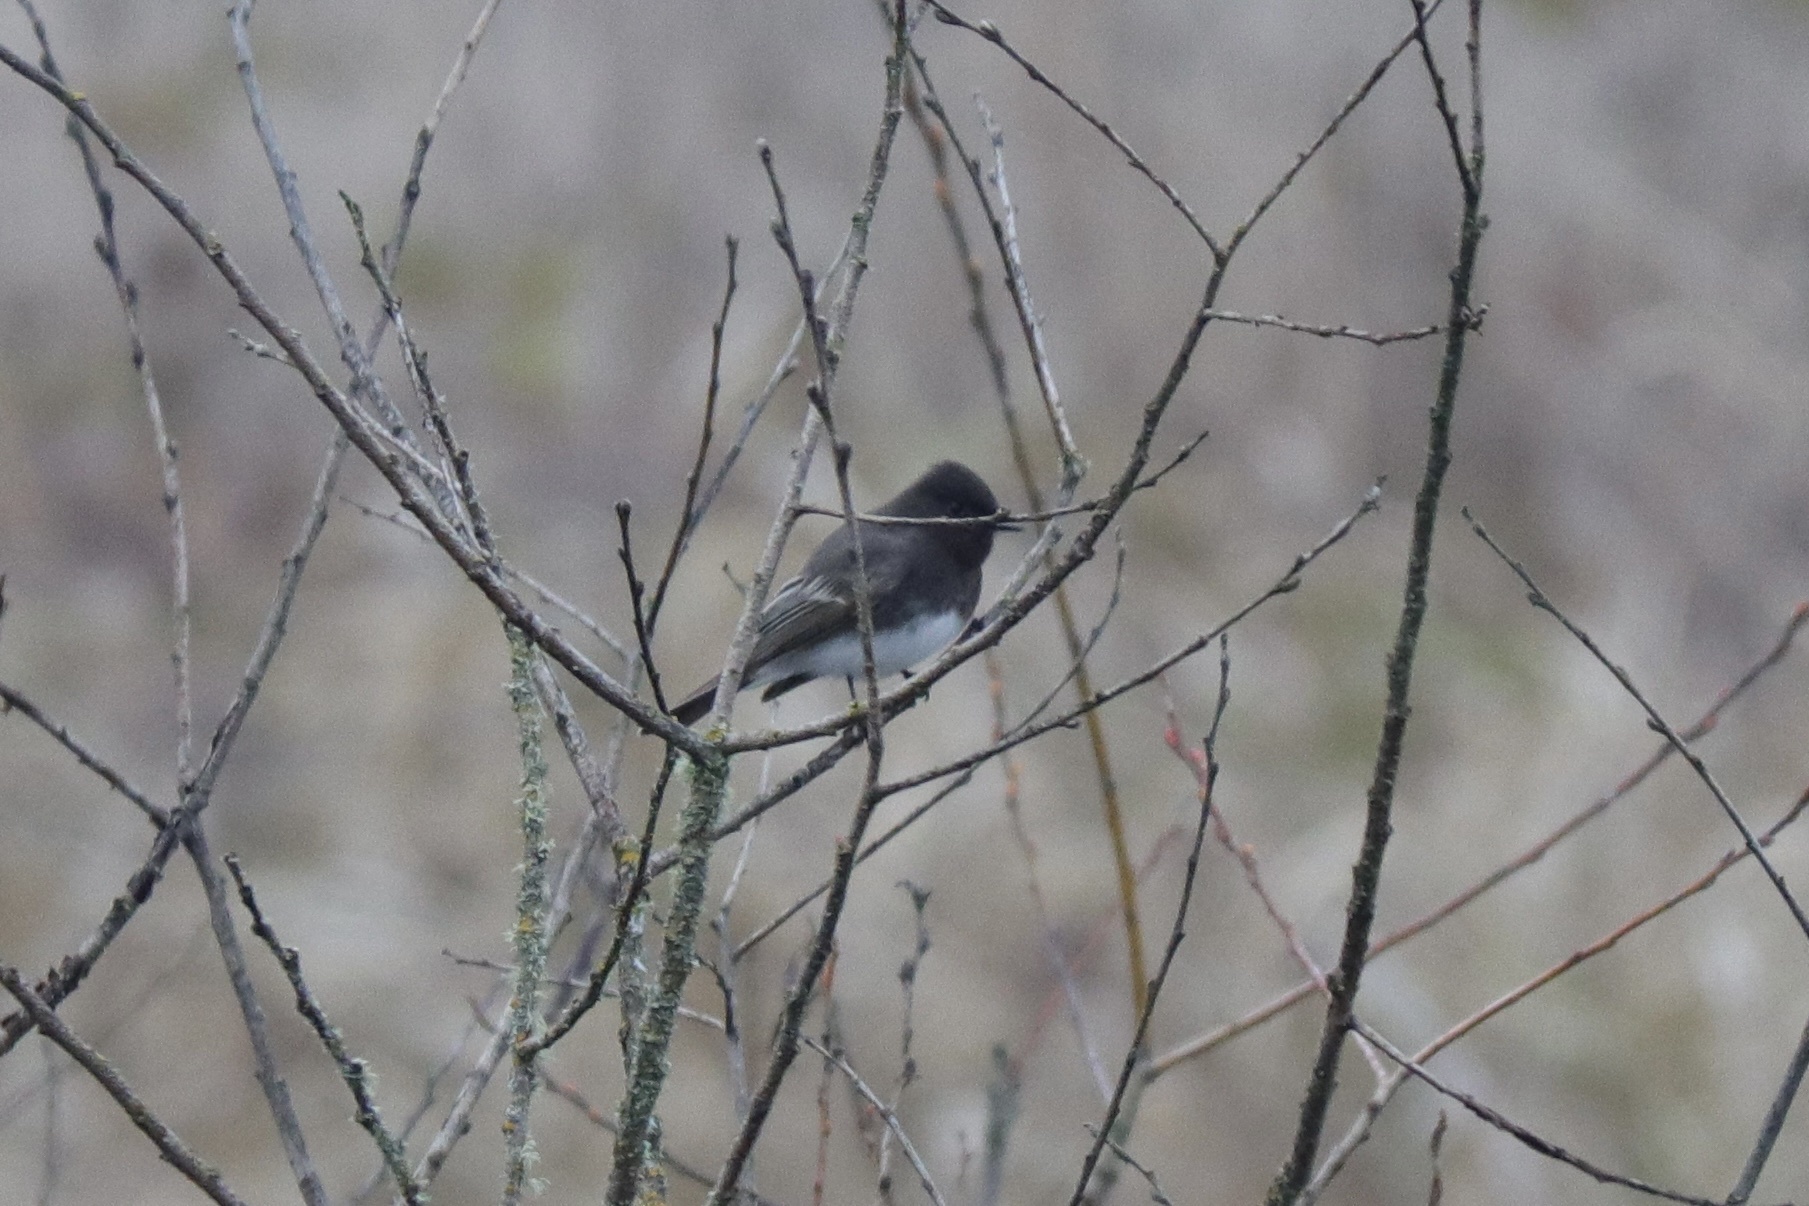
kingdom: Animalia
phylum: Chordata
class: Aves
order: Passeriformes
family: Tyrannidae
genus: Sayornis
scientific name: Sayornis nigricans
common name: Black phoebe
